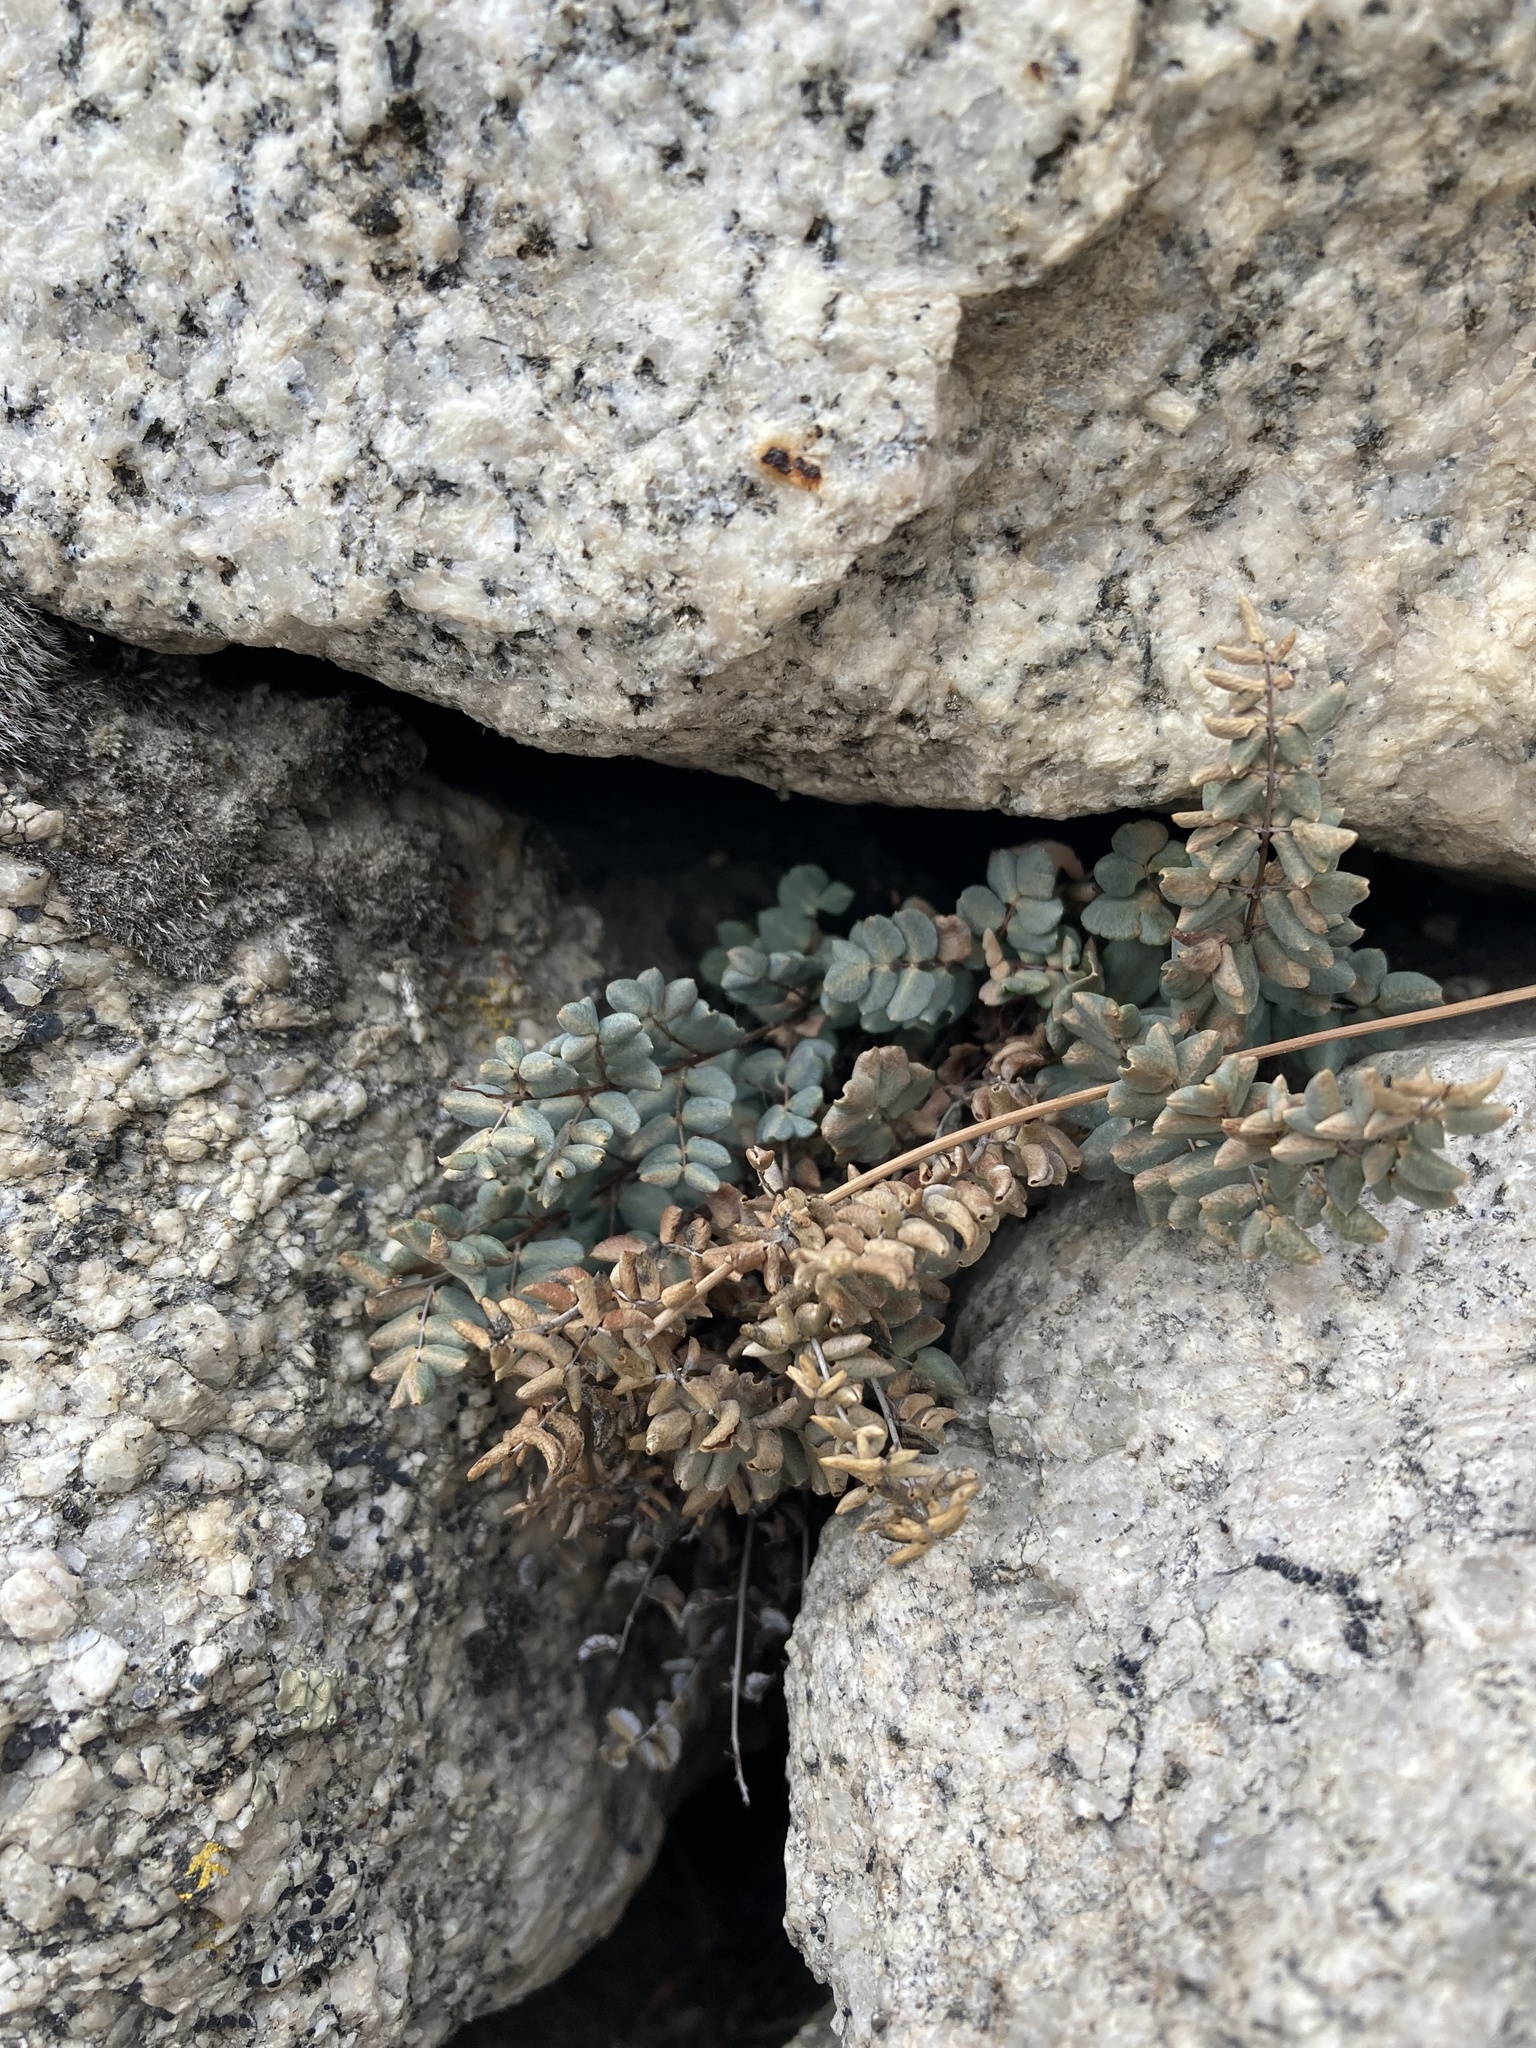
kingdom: Plantae
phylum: Tracheophyta
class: Polypodiopsida
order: Polypodiales
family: Pteridaceae
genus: Pellaea
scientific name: Pellaea mucronata
